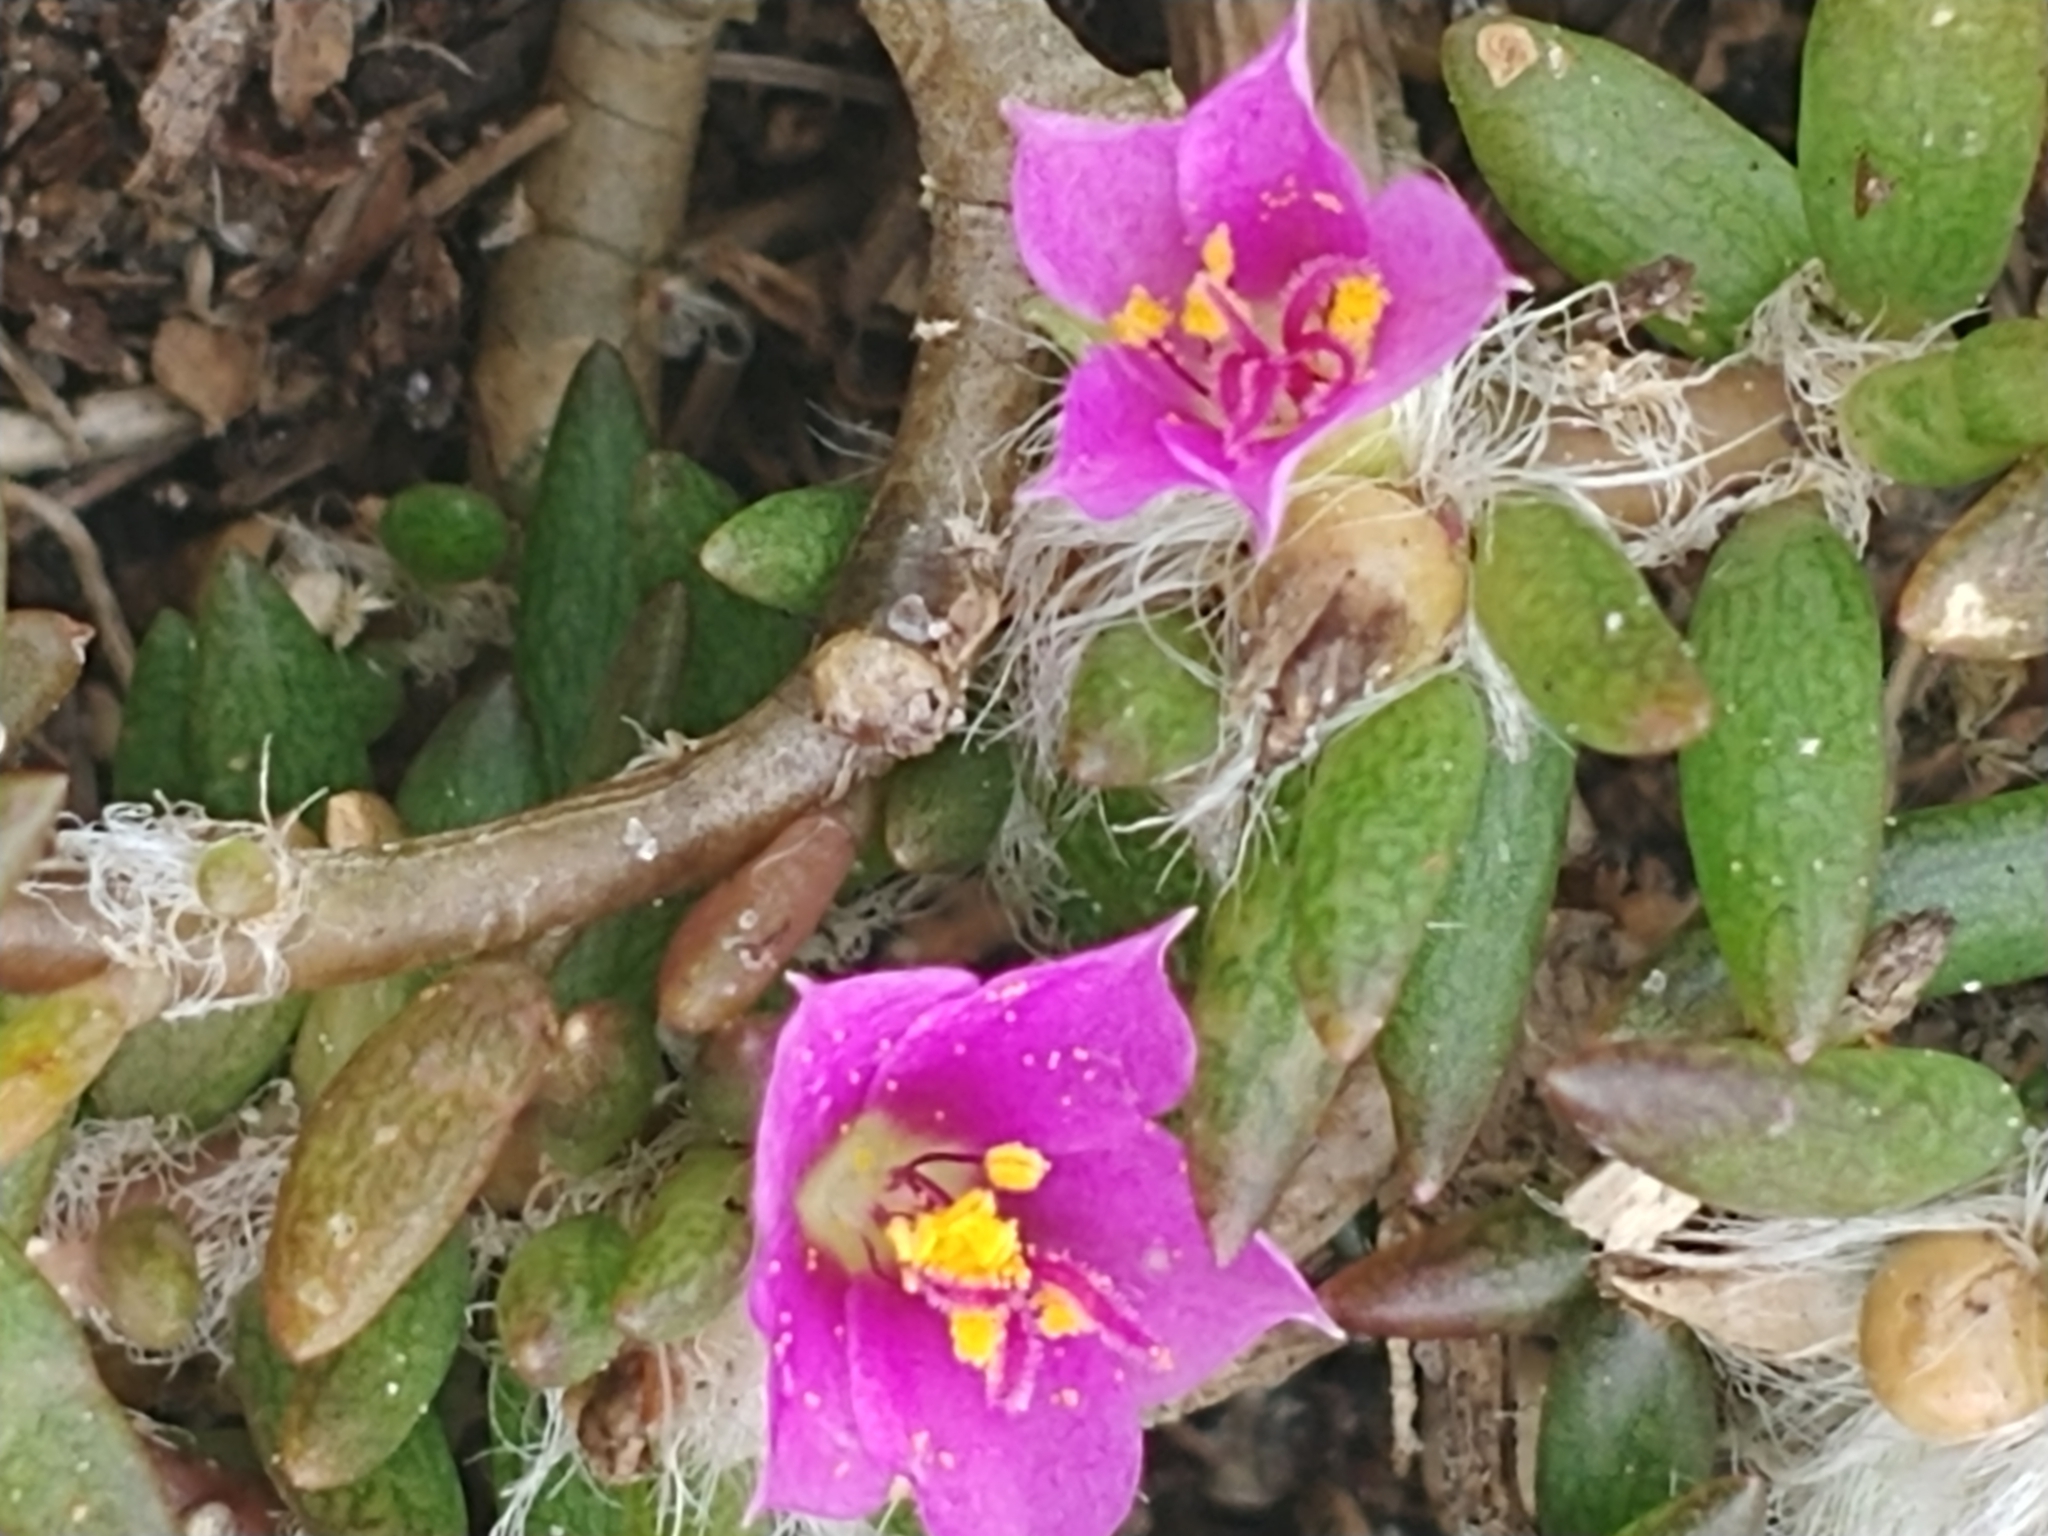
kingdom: Plantae
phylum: Tracheophyta
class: Magnoliopsida
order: Caryophyllales
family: Portulacaceae
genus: Portulaca
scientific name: Portulaca pilosa
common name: Kiss me quick
